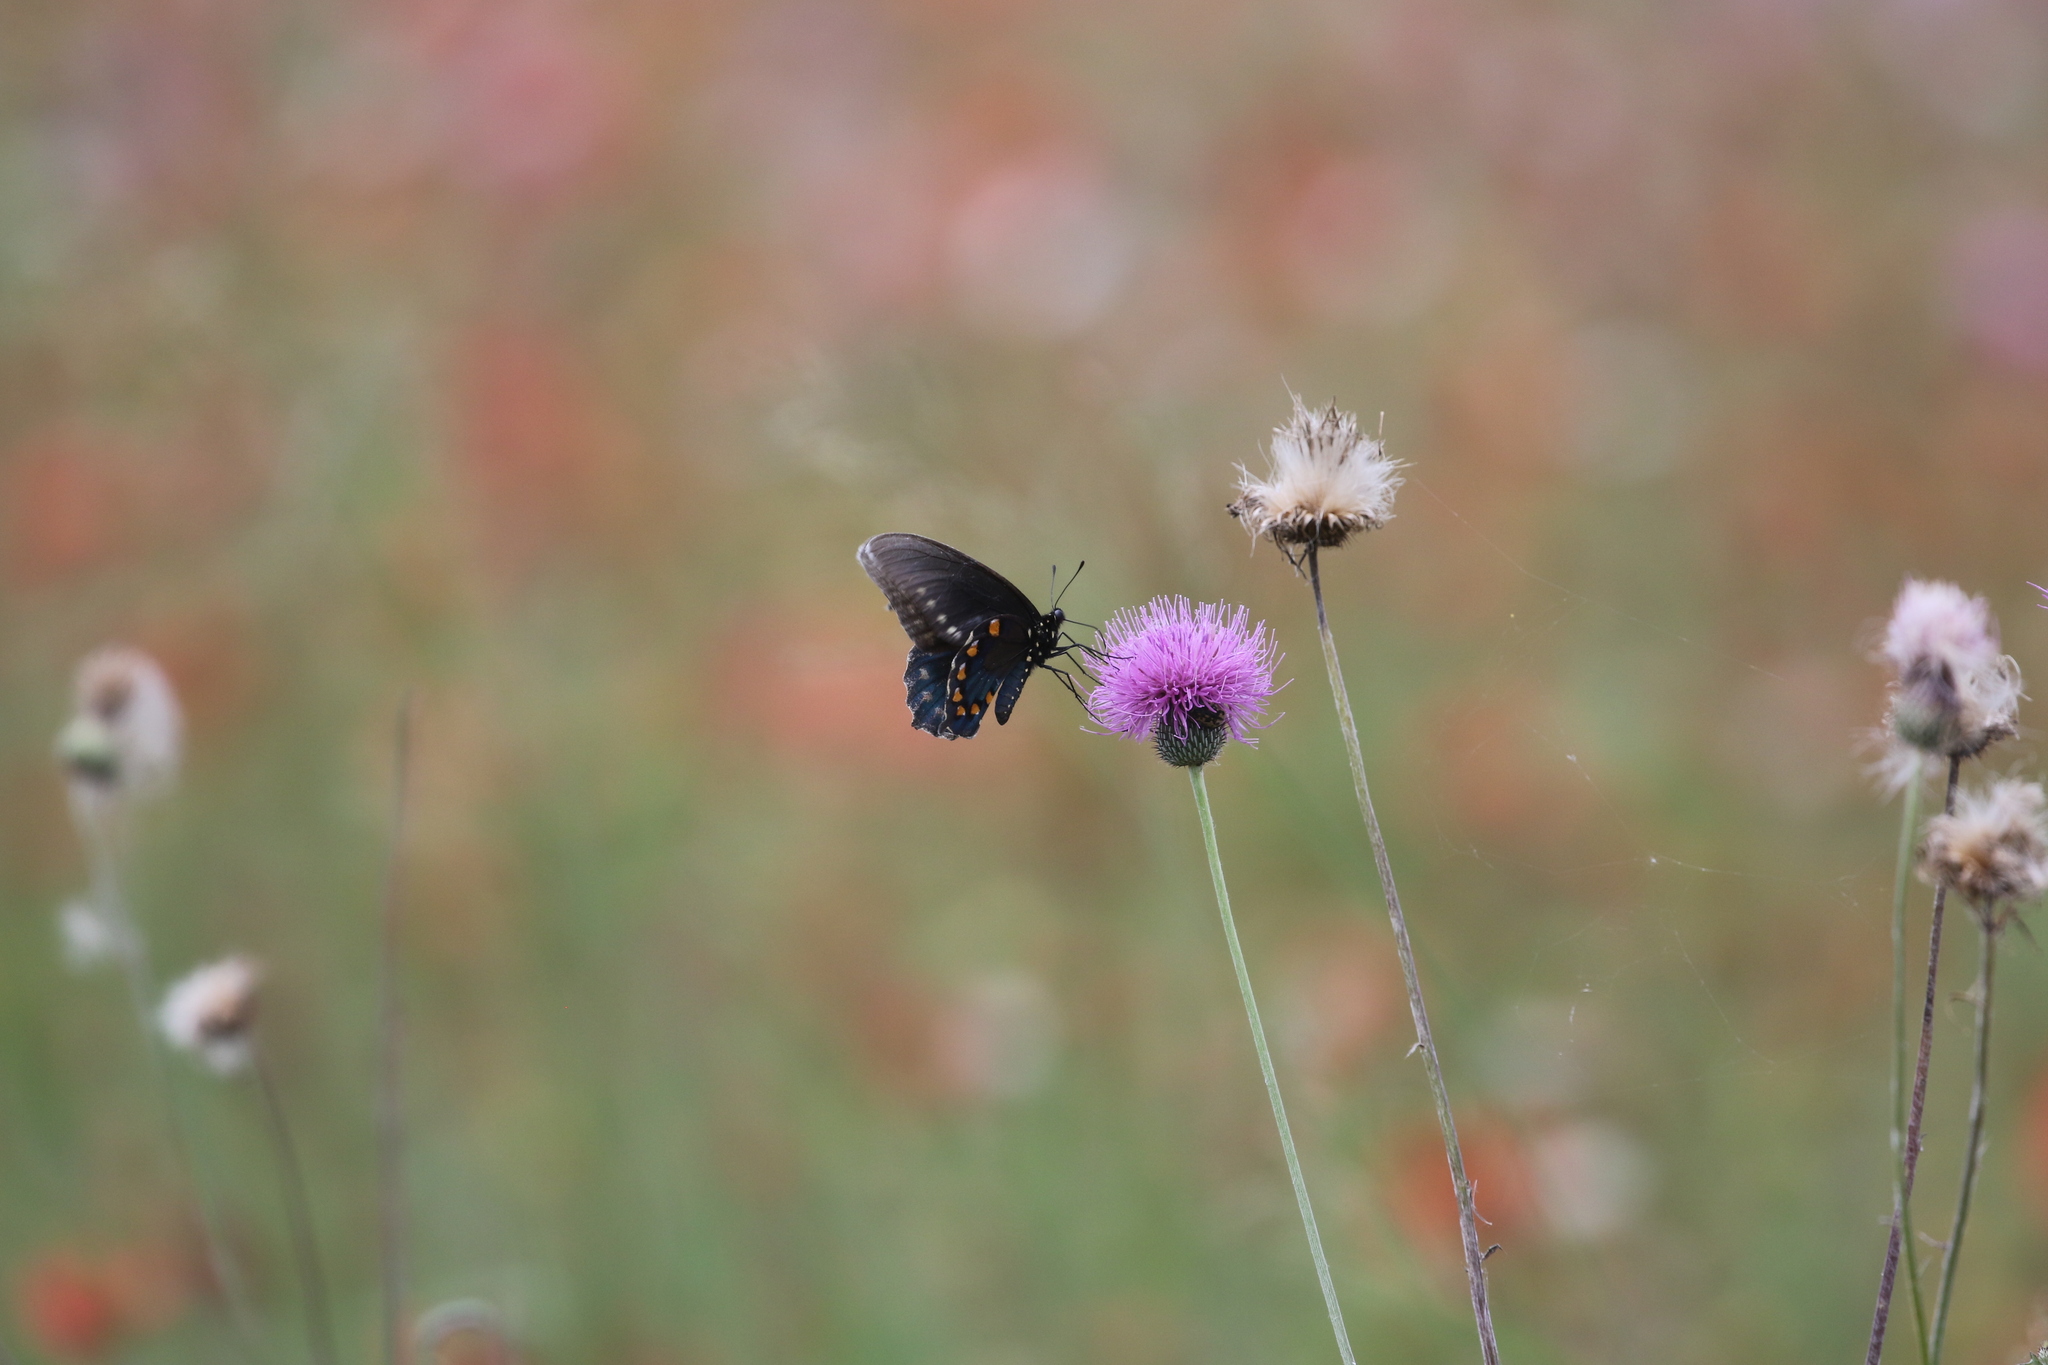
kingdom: Animalia
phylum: Arthropoda
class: Insecta
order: Lepidoptera
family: Papilionidae
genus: Battus
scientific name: Battus philenor
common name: Pipevine swallowtail
